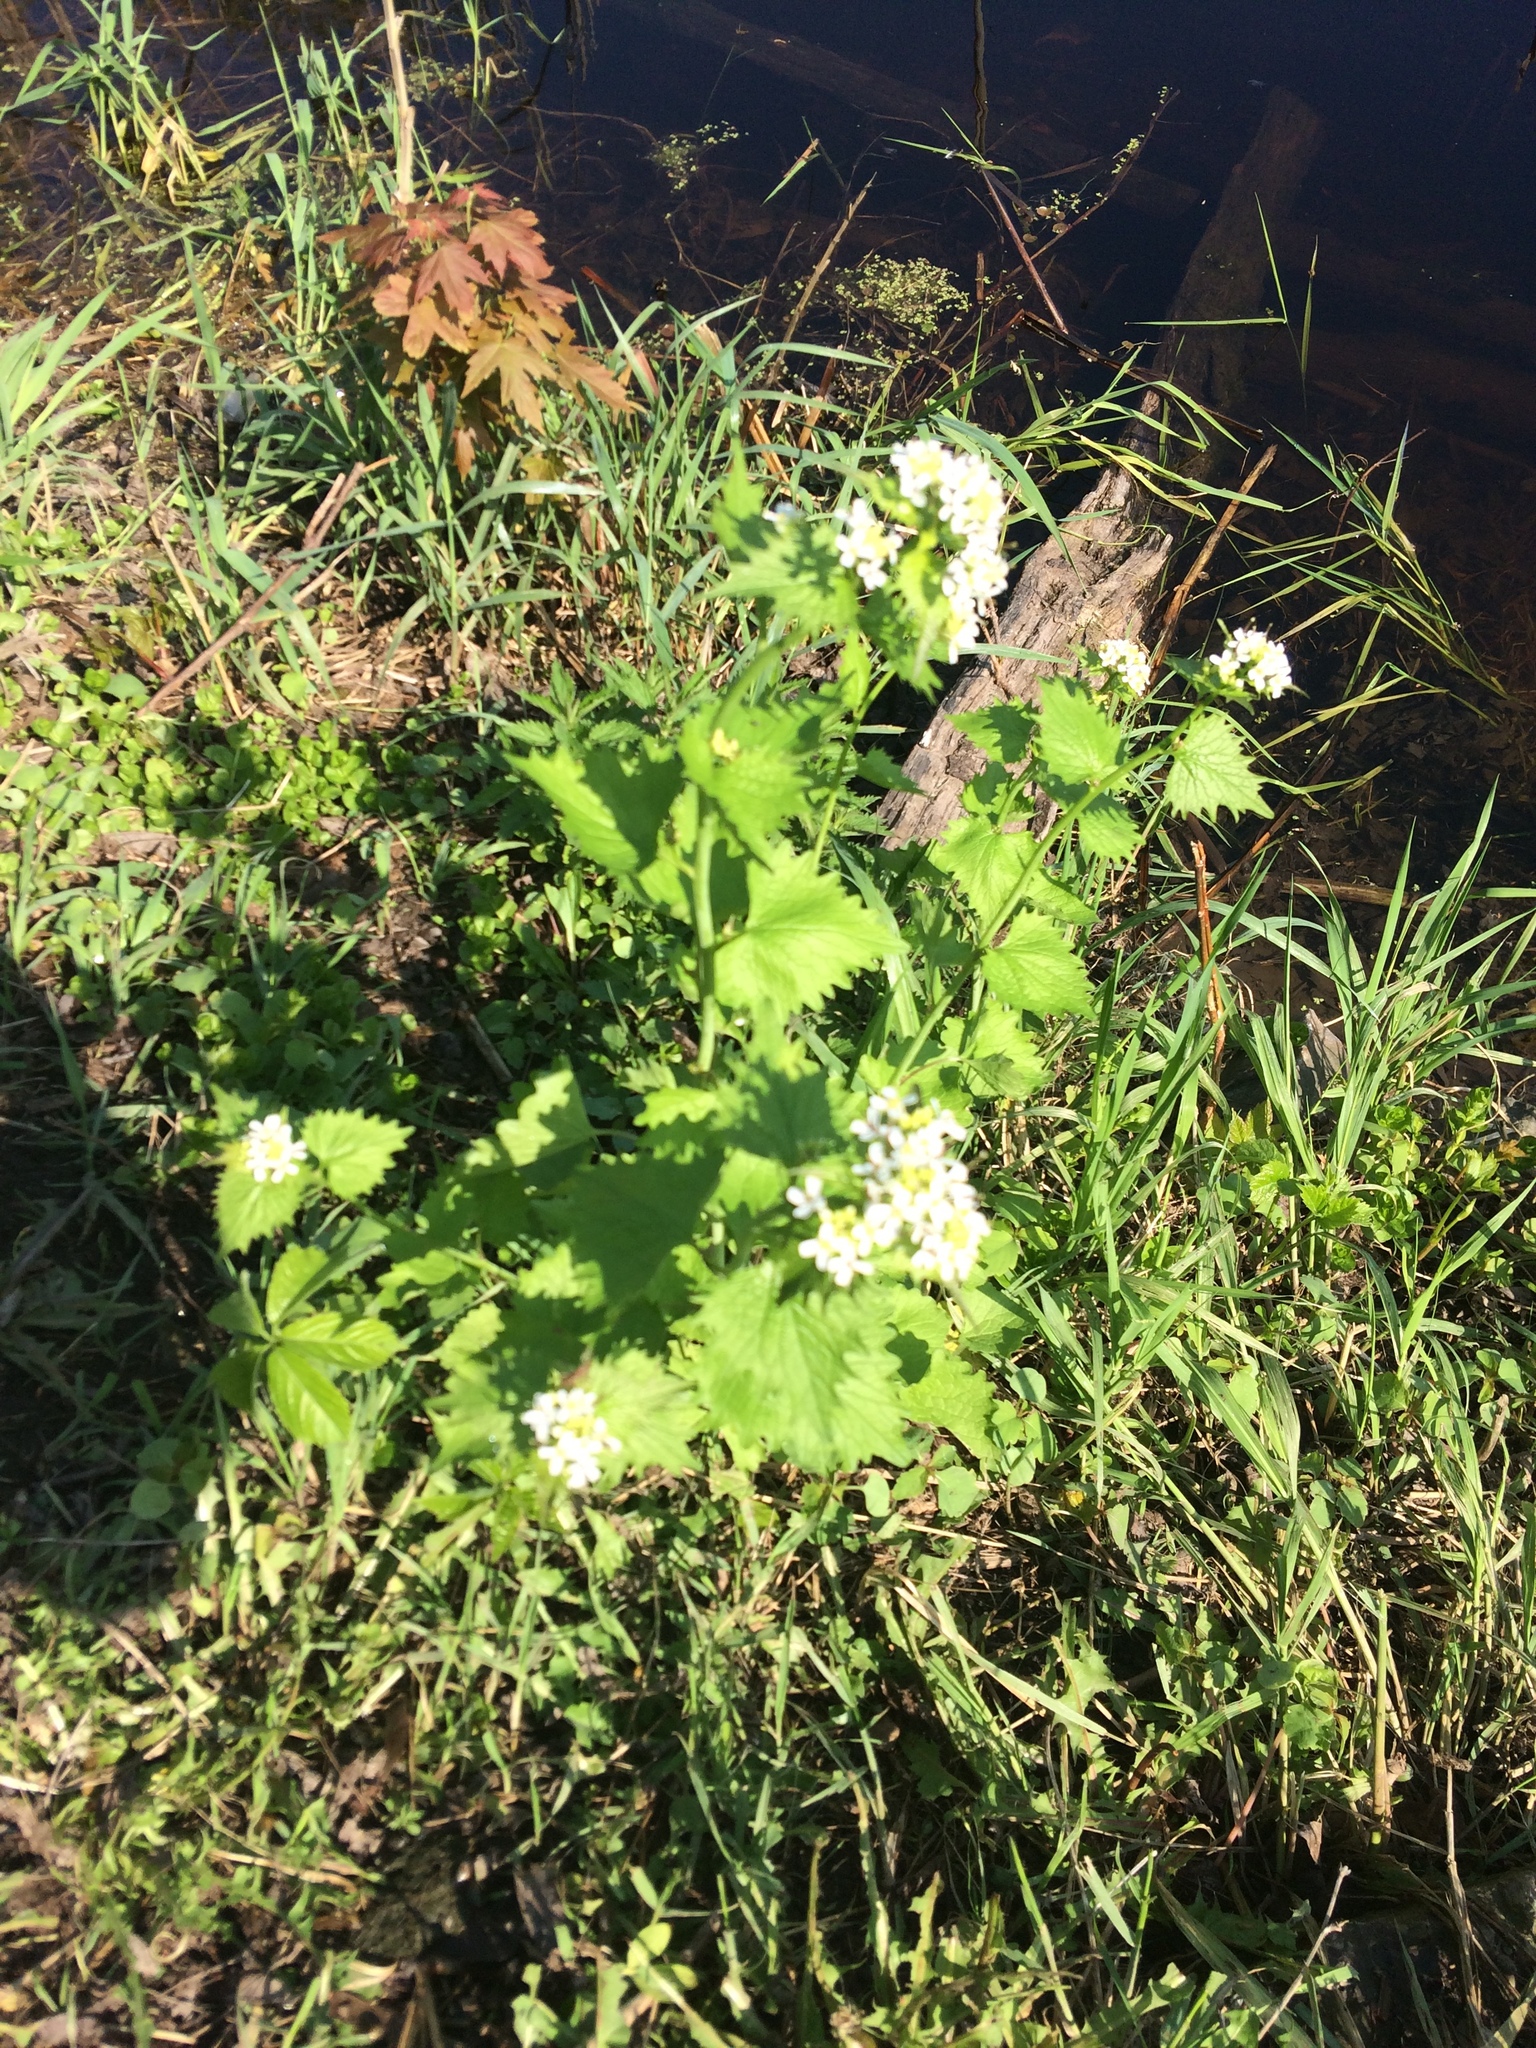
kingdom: Plantae
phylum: Tracheophyta
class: Magnoliopsida
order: Brassicales
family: Brassicaceae
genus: Alliaria
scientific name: Alliaria petiolata
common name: Garlic mustard
